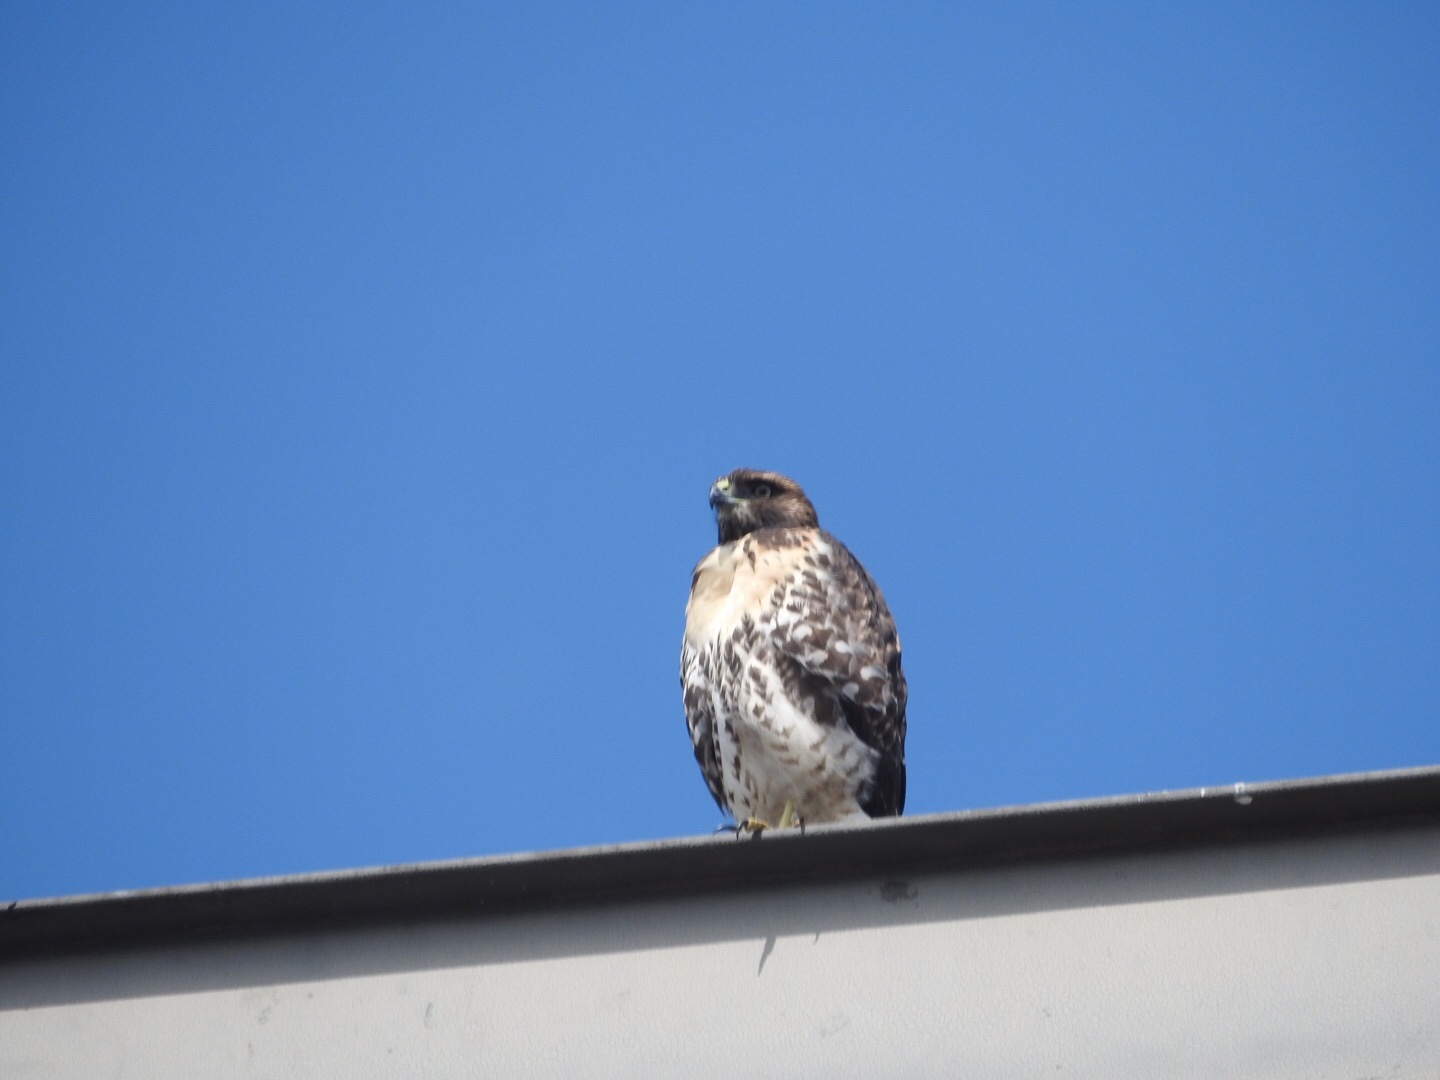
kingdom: Animalia
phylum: Chordata
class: Aves
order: Accipitriformes
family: Accipitridae
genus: Buteo
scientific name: Buteo jamaicensis
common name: Red-tailed hawk
